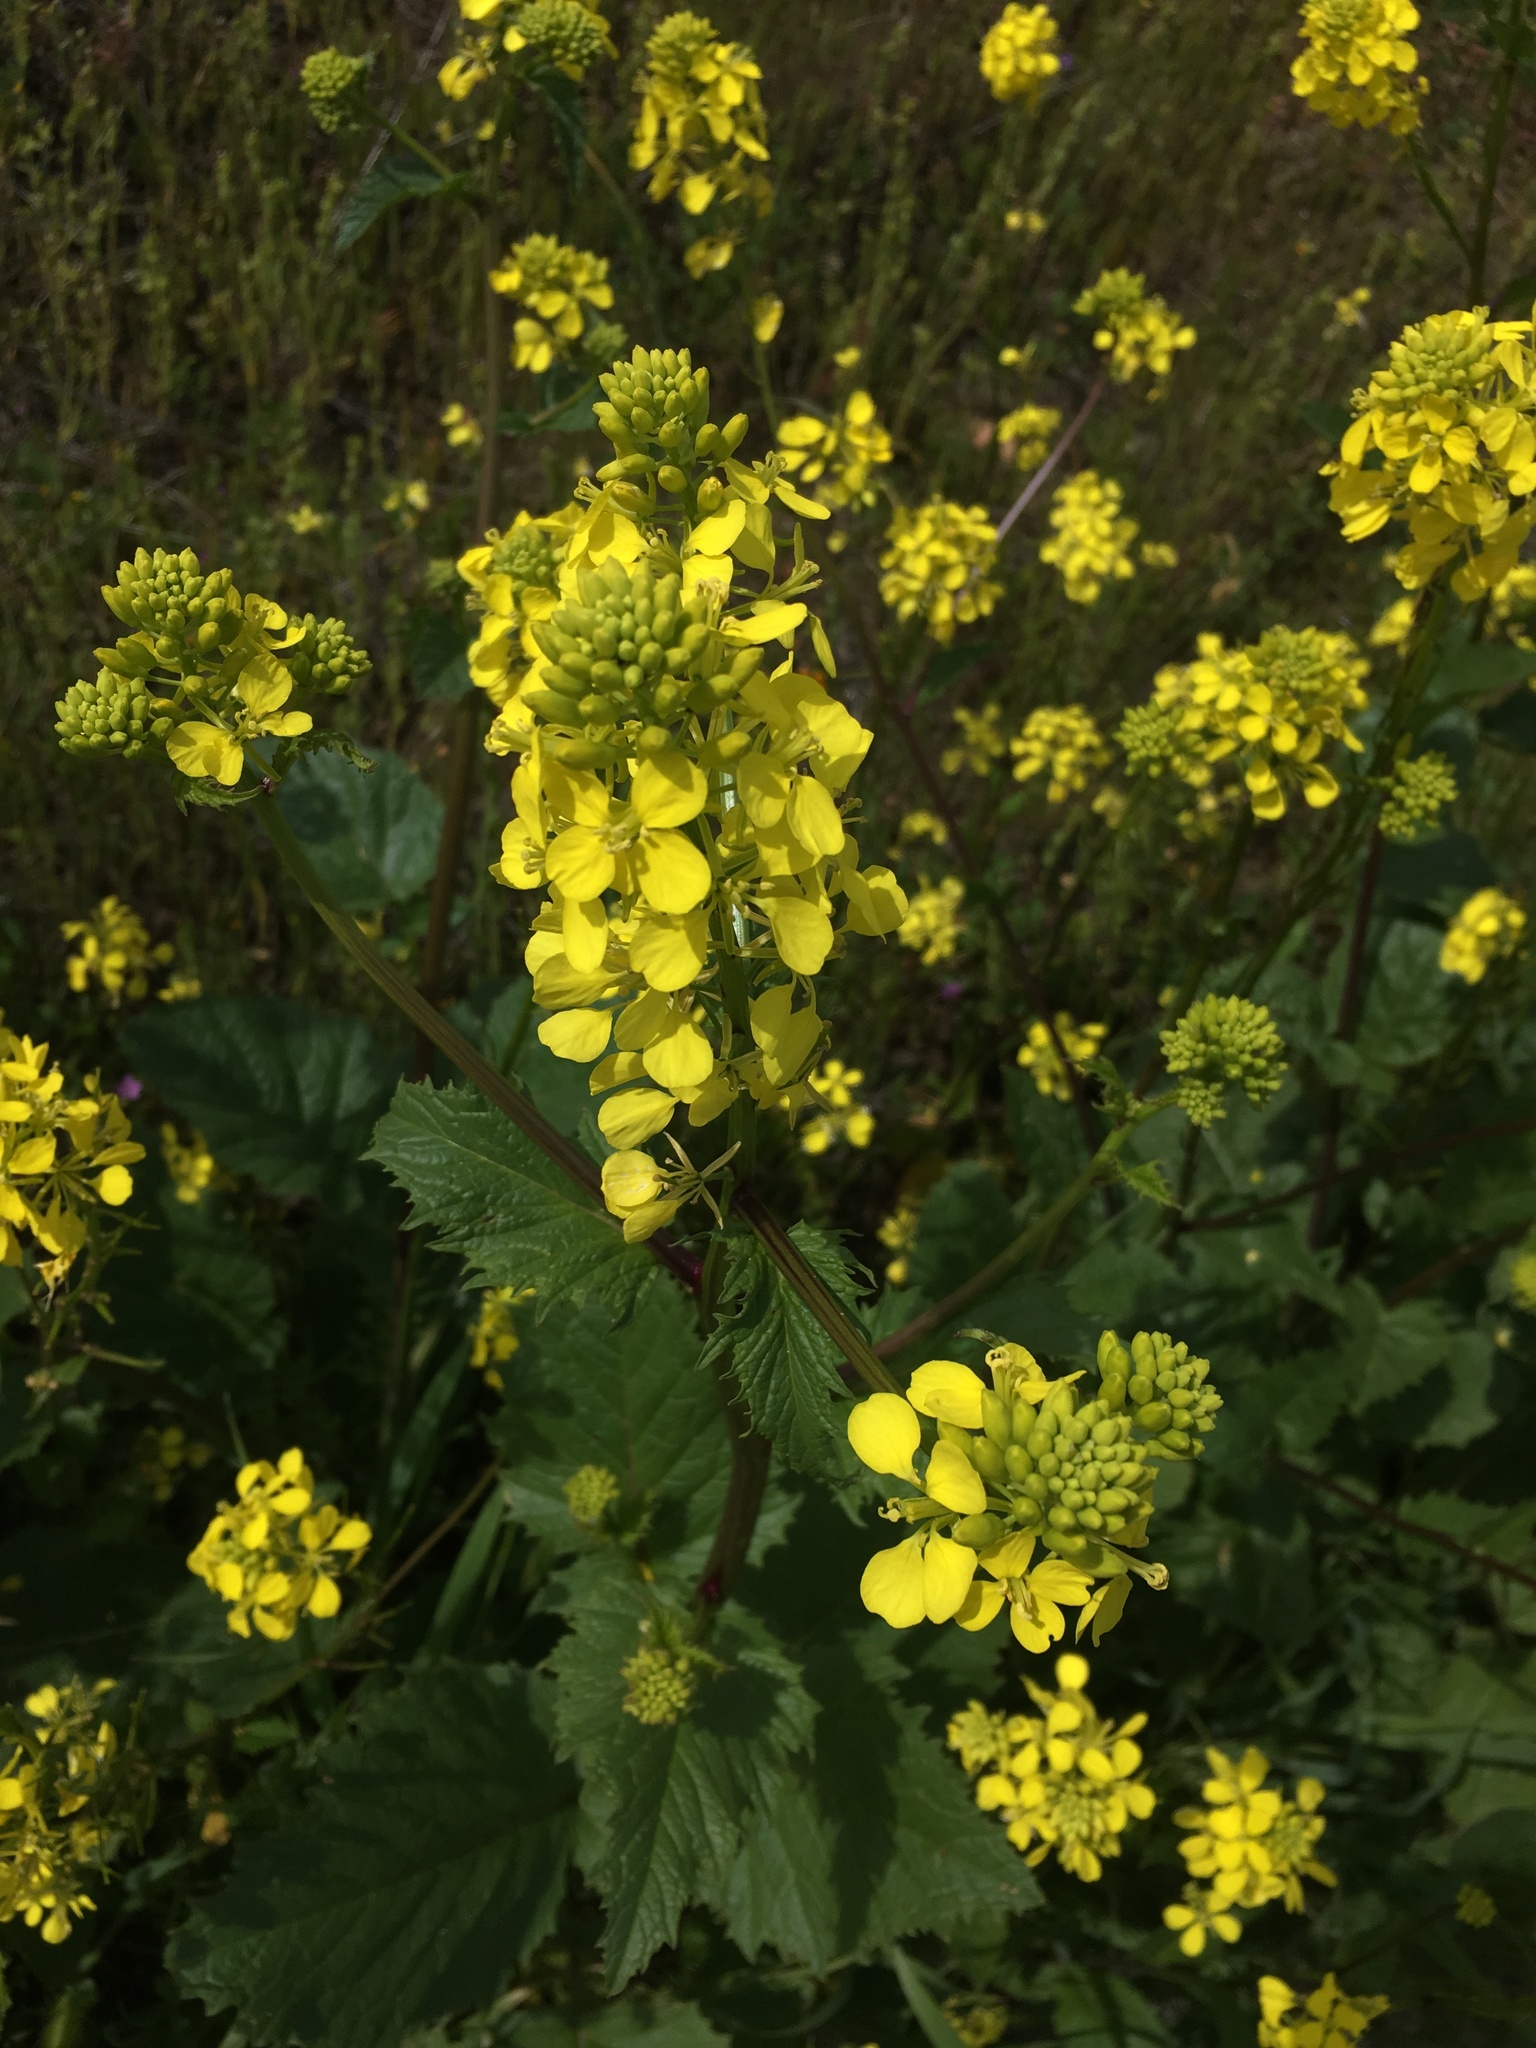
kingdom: Plantae
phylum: Tracheophyta
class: Magnoliopsida
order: Brassicales
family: Brassicaceae
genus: Brassica
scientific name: Brassica nigra
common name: Black mustard
